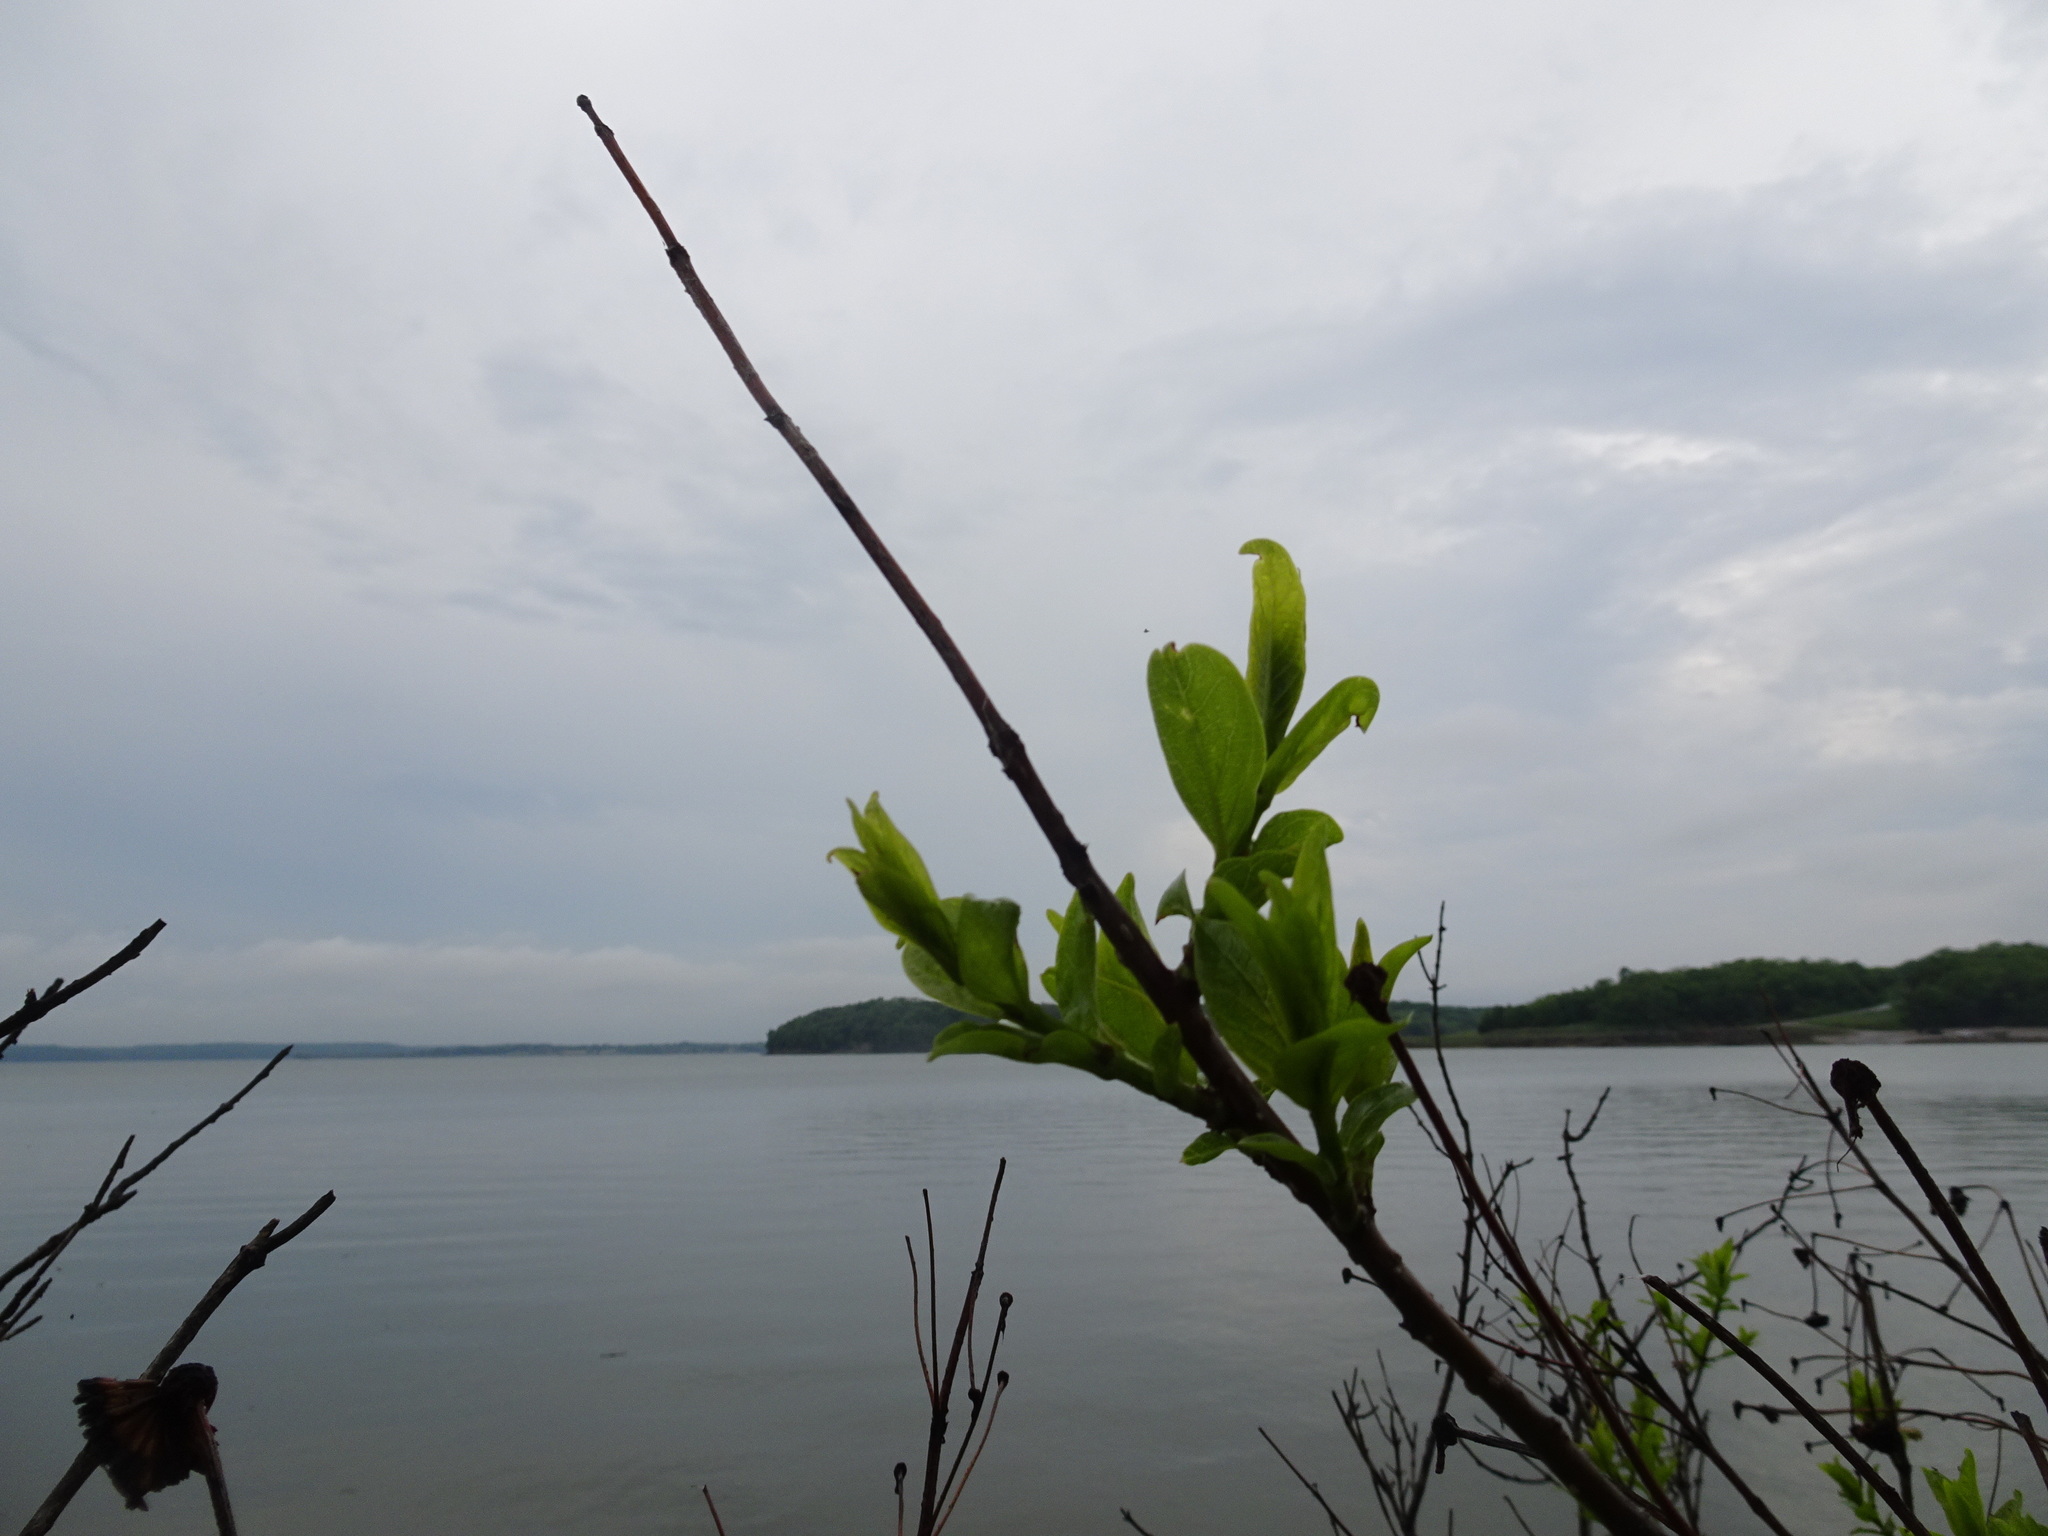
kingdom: Plantae
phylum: Tracheophyta
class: Magnoliopsida
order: Gentianales
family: Rubiaceae
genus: Cephalanthus
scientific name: Cephalanthus occidentalis
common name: Button-willow
